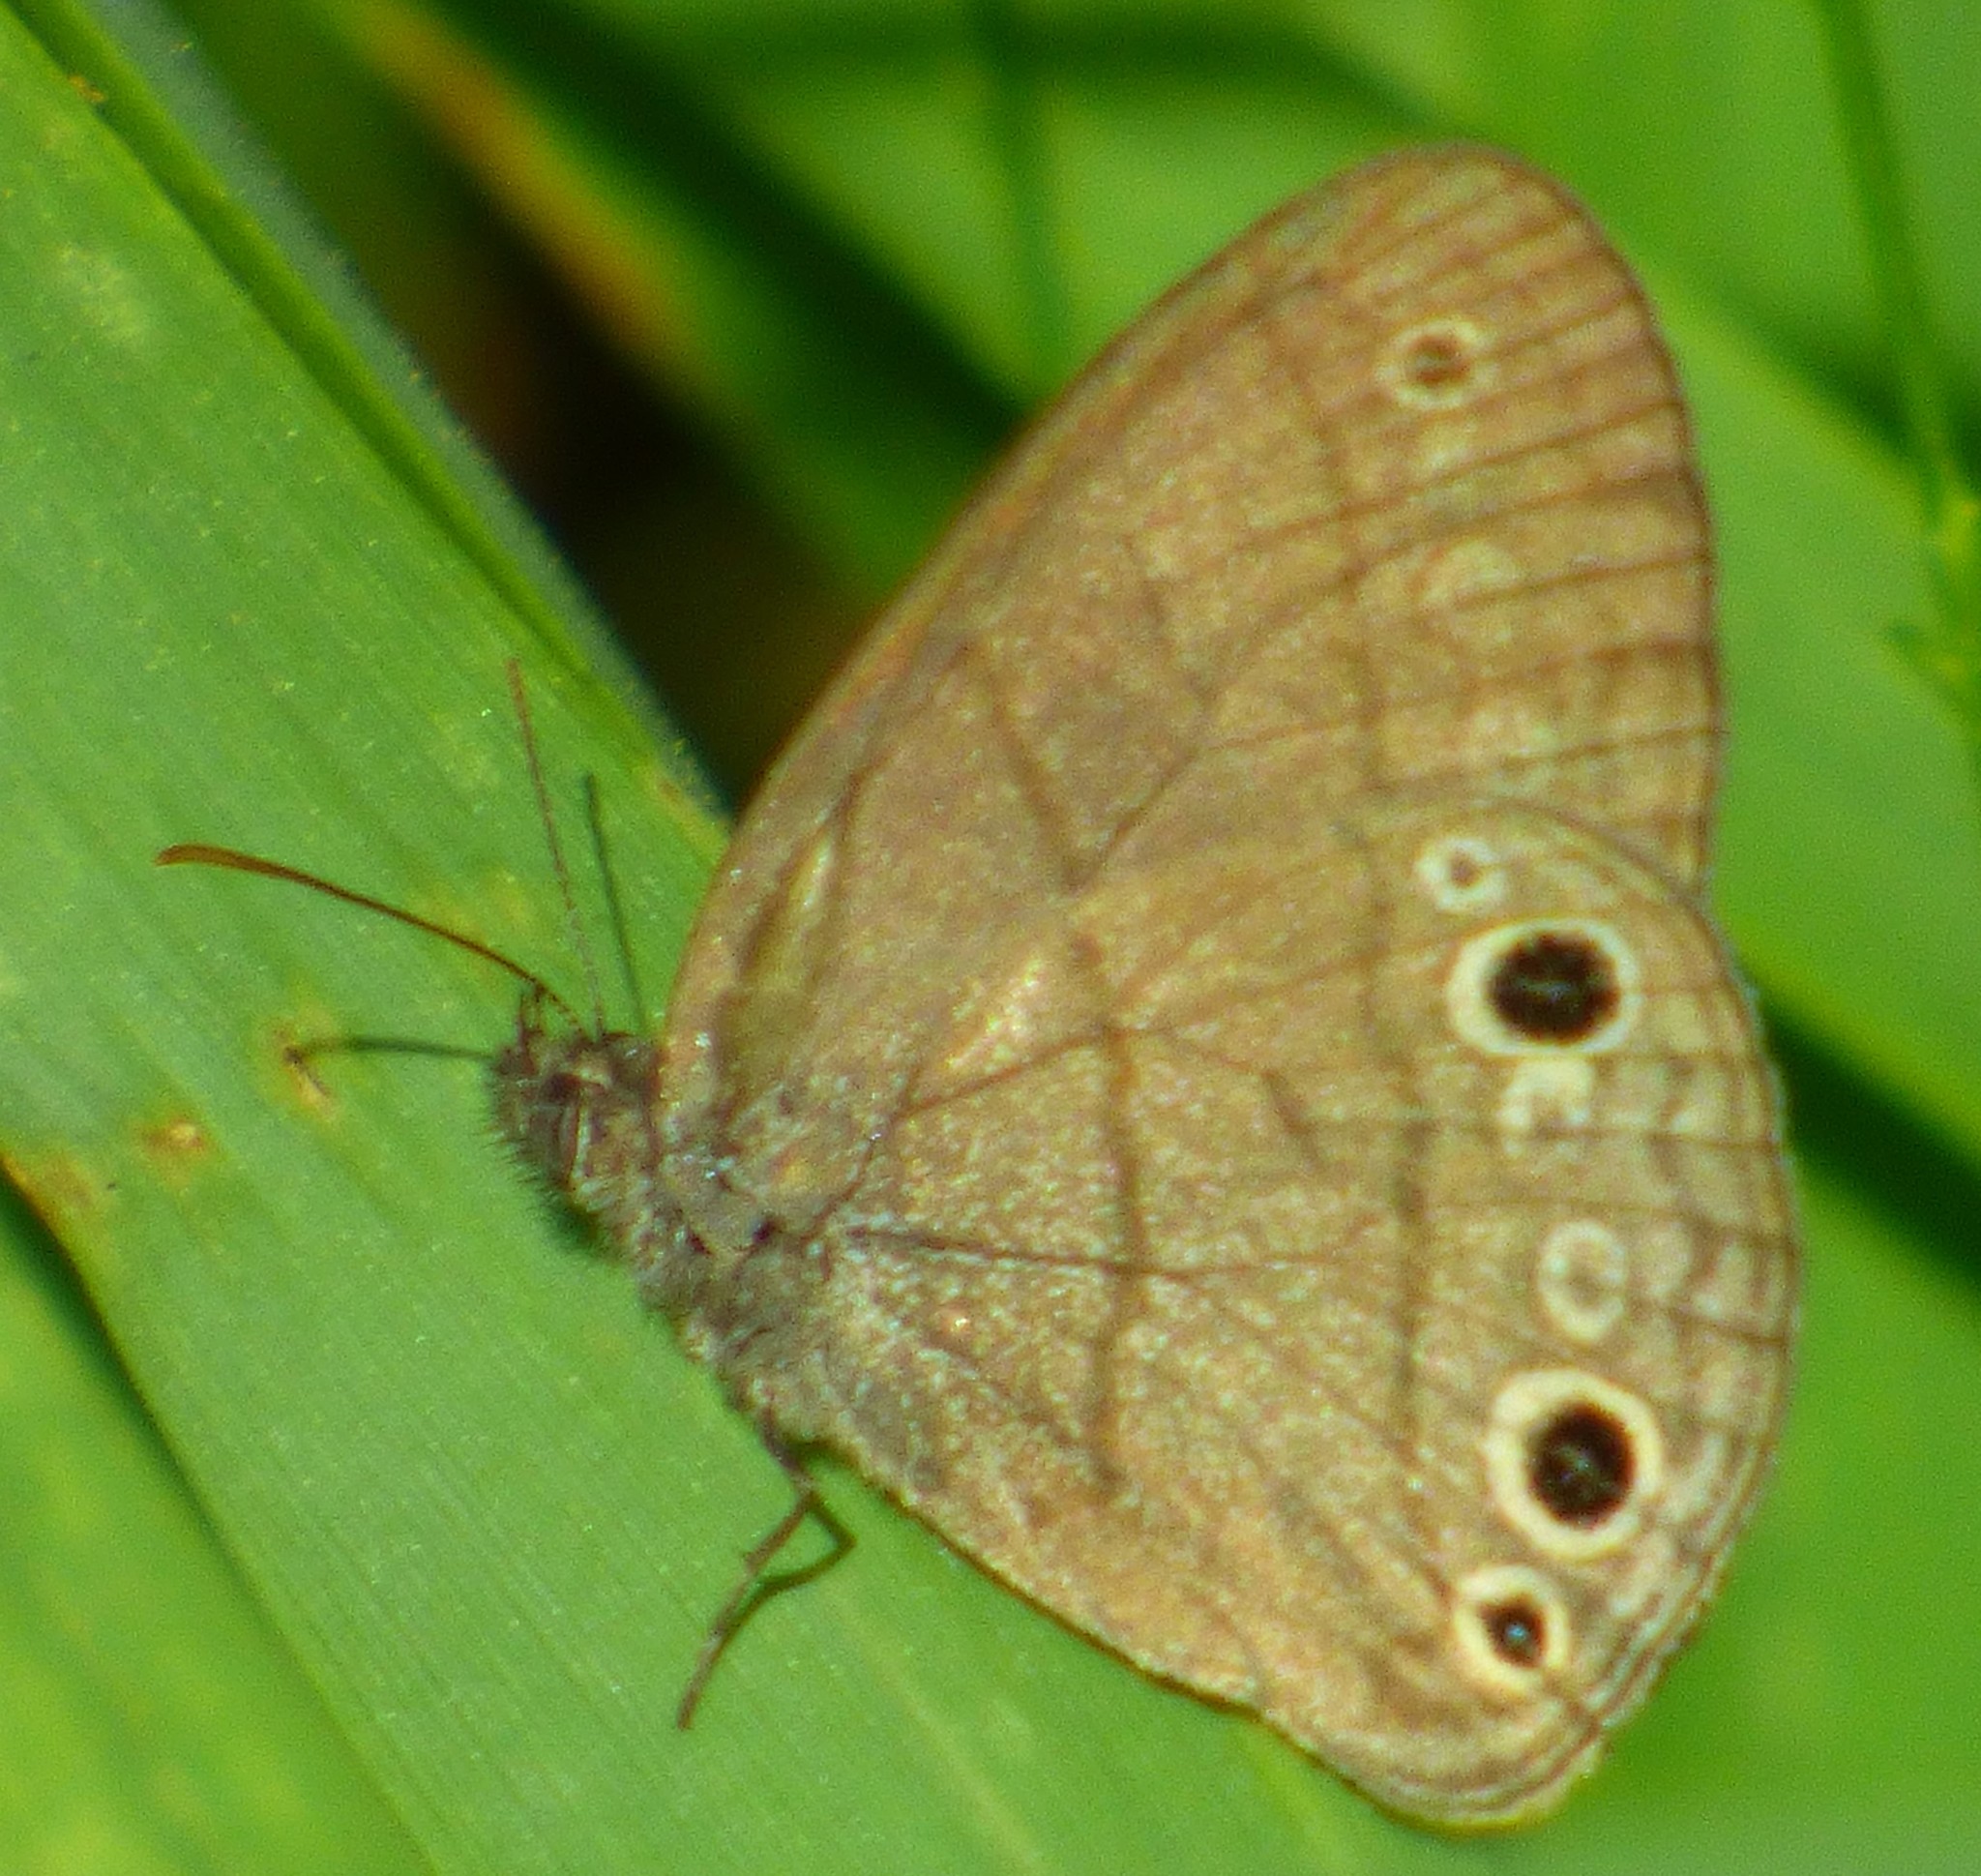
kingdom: Animalia
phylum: Arthropoda
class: Insecta
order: Lepidoptera
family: Nymphalidae
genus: Hermeuptychia
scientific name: Hermeuptychia hermes
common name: Hermes satyr
